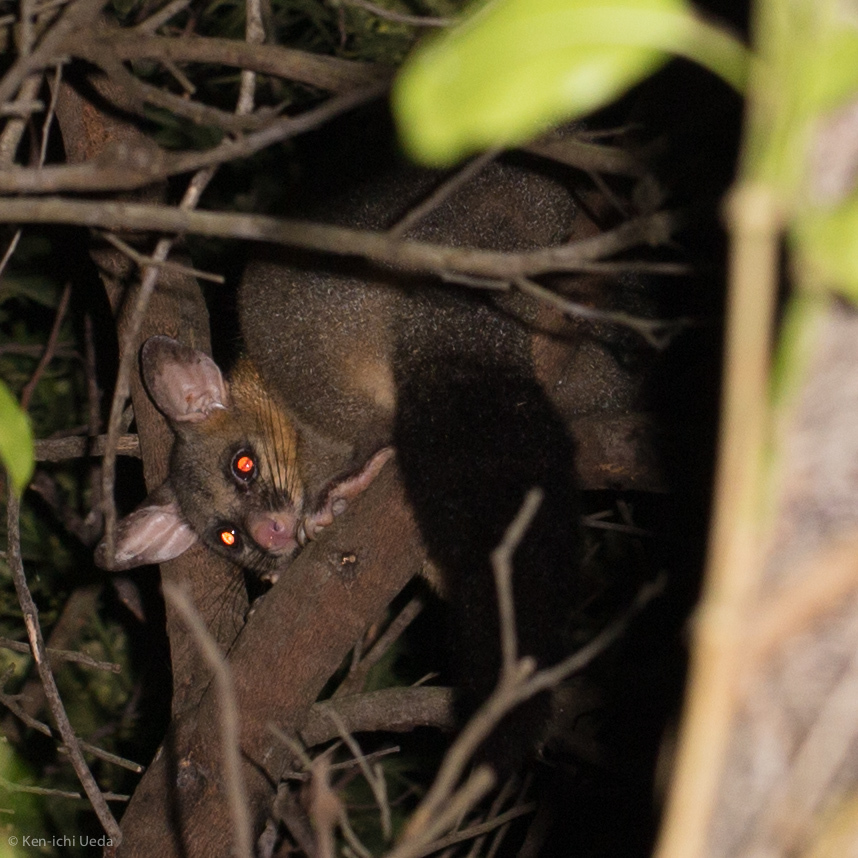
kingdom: Animalia
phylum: Chordata
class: Mammalia
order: Diprotodontia
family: Phalangeridae
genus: Trichosurus
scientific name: Trichosurus vulpecula
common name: Common brushtail
